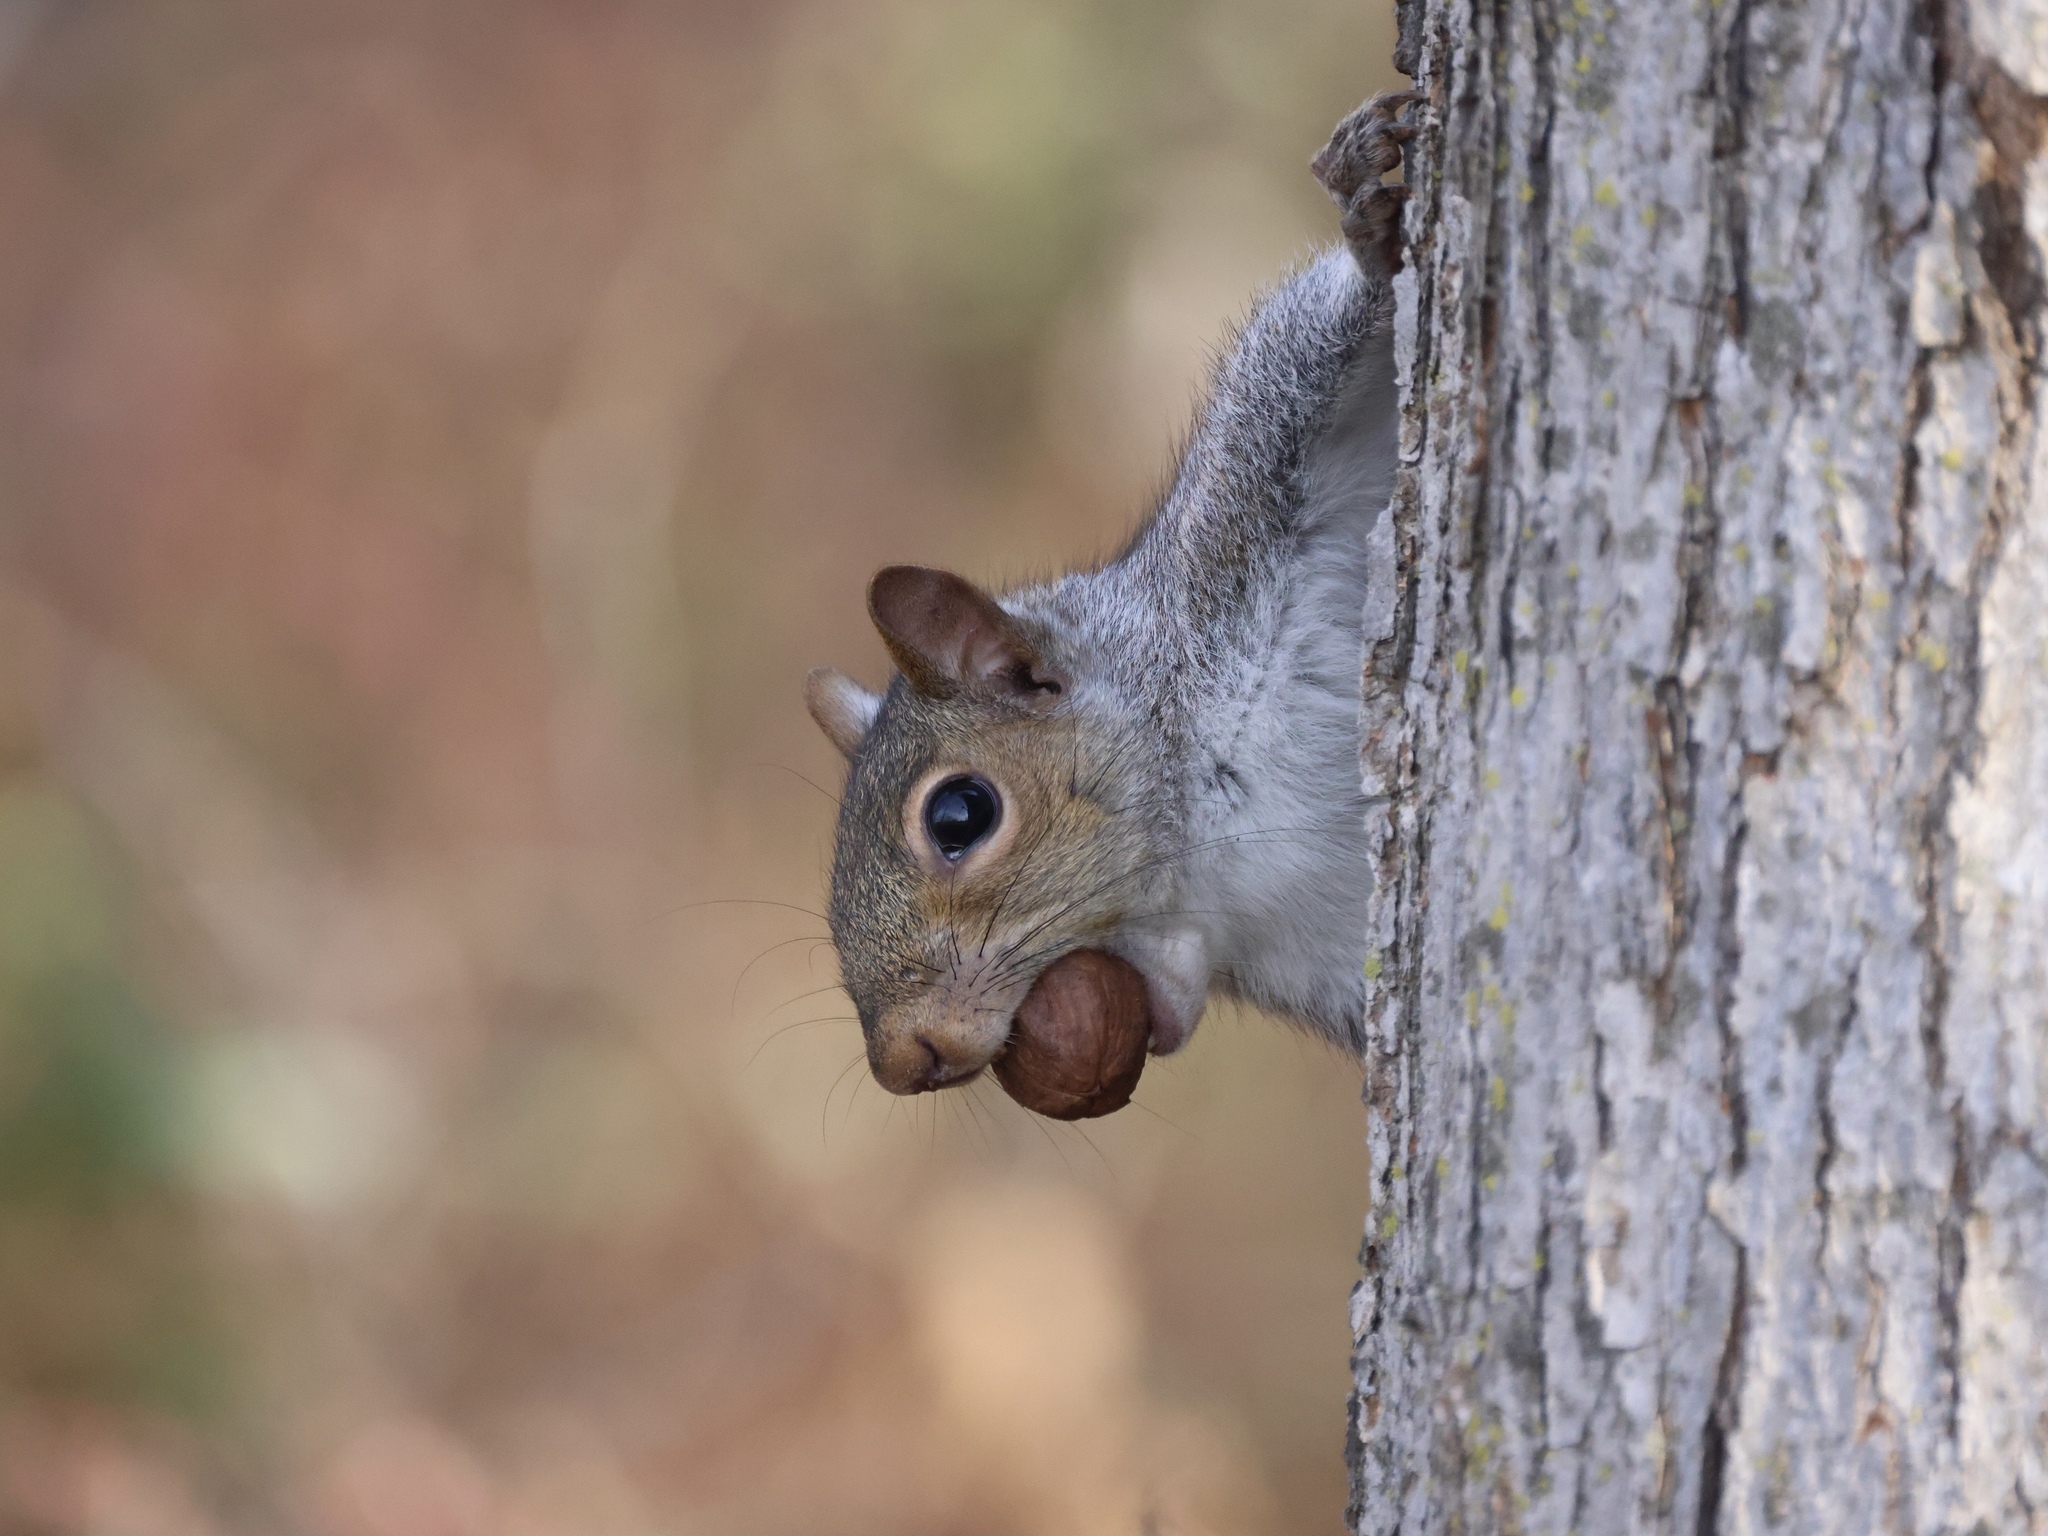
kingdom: Animalia
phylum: Chordata
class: Mammalia
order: Rodentia
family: Sciuridae
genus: Sciurus
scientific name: Sciurus carolinensis
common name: Eastern gray squirrel
